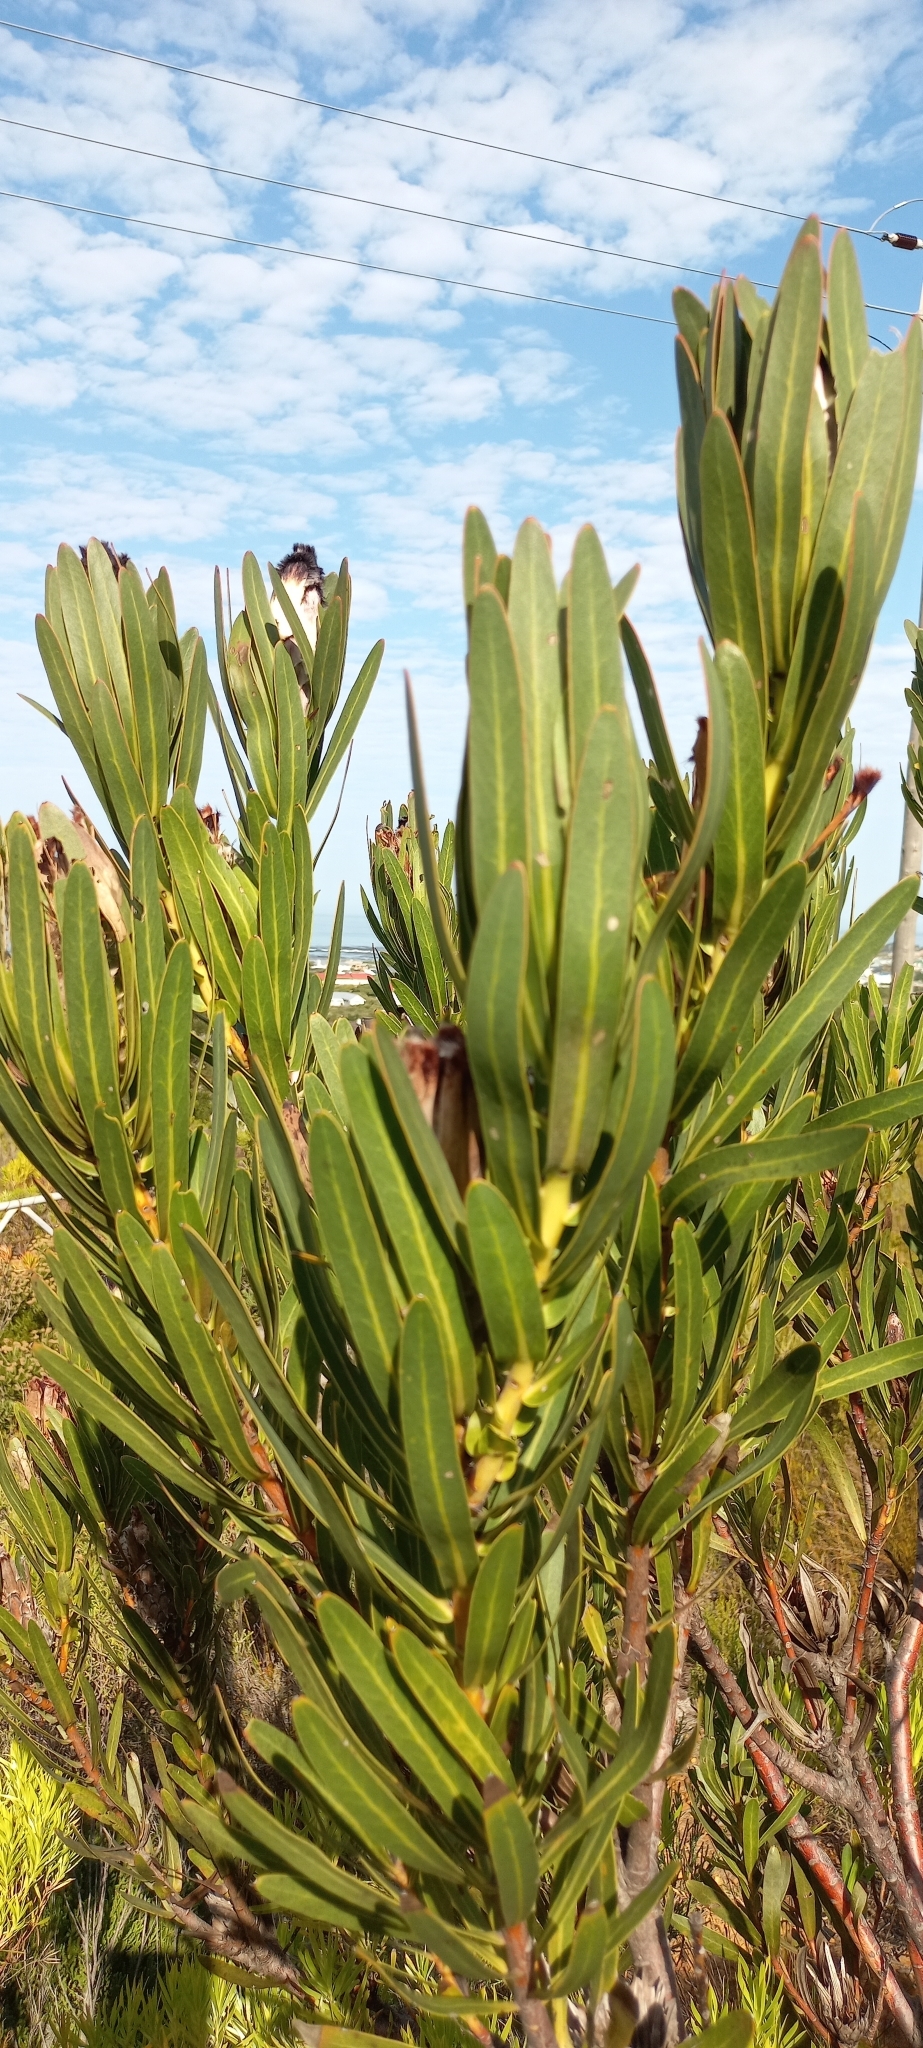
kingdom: Plantae
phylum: Tracheophyta
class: Magnoliopsida
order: Proteales
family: Proteaceae
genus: Protea
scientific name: Protea lepidocarpodendron
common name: Black-bearded protea
